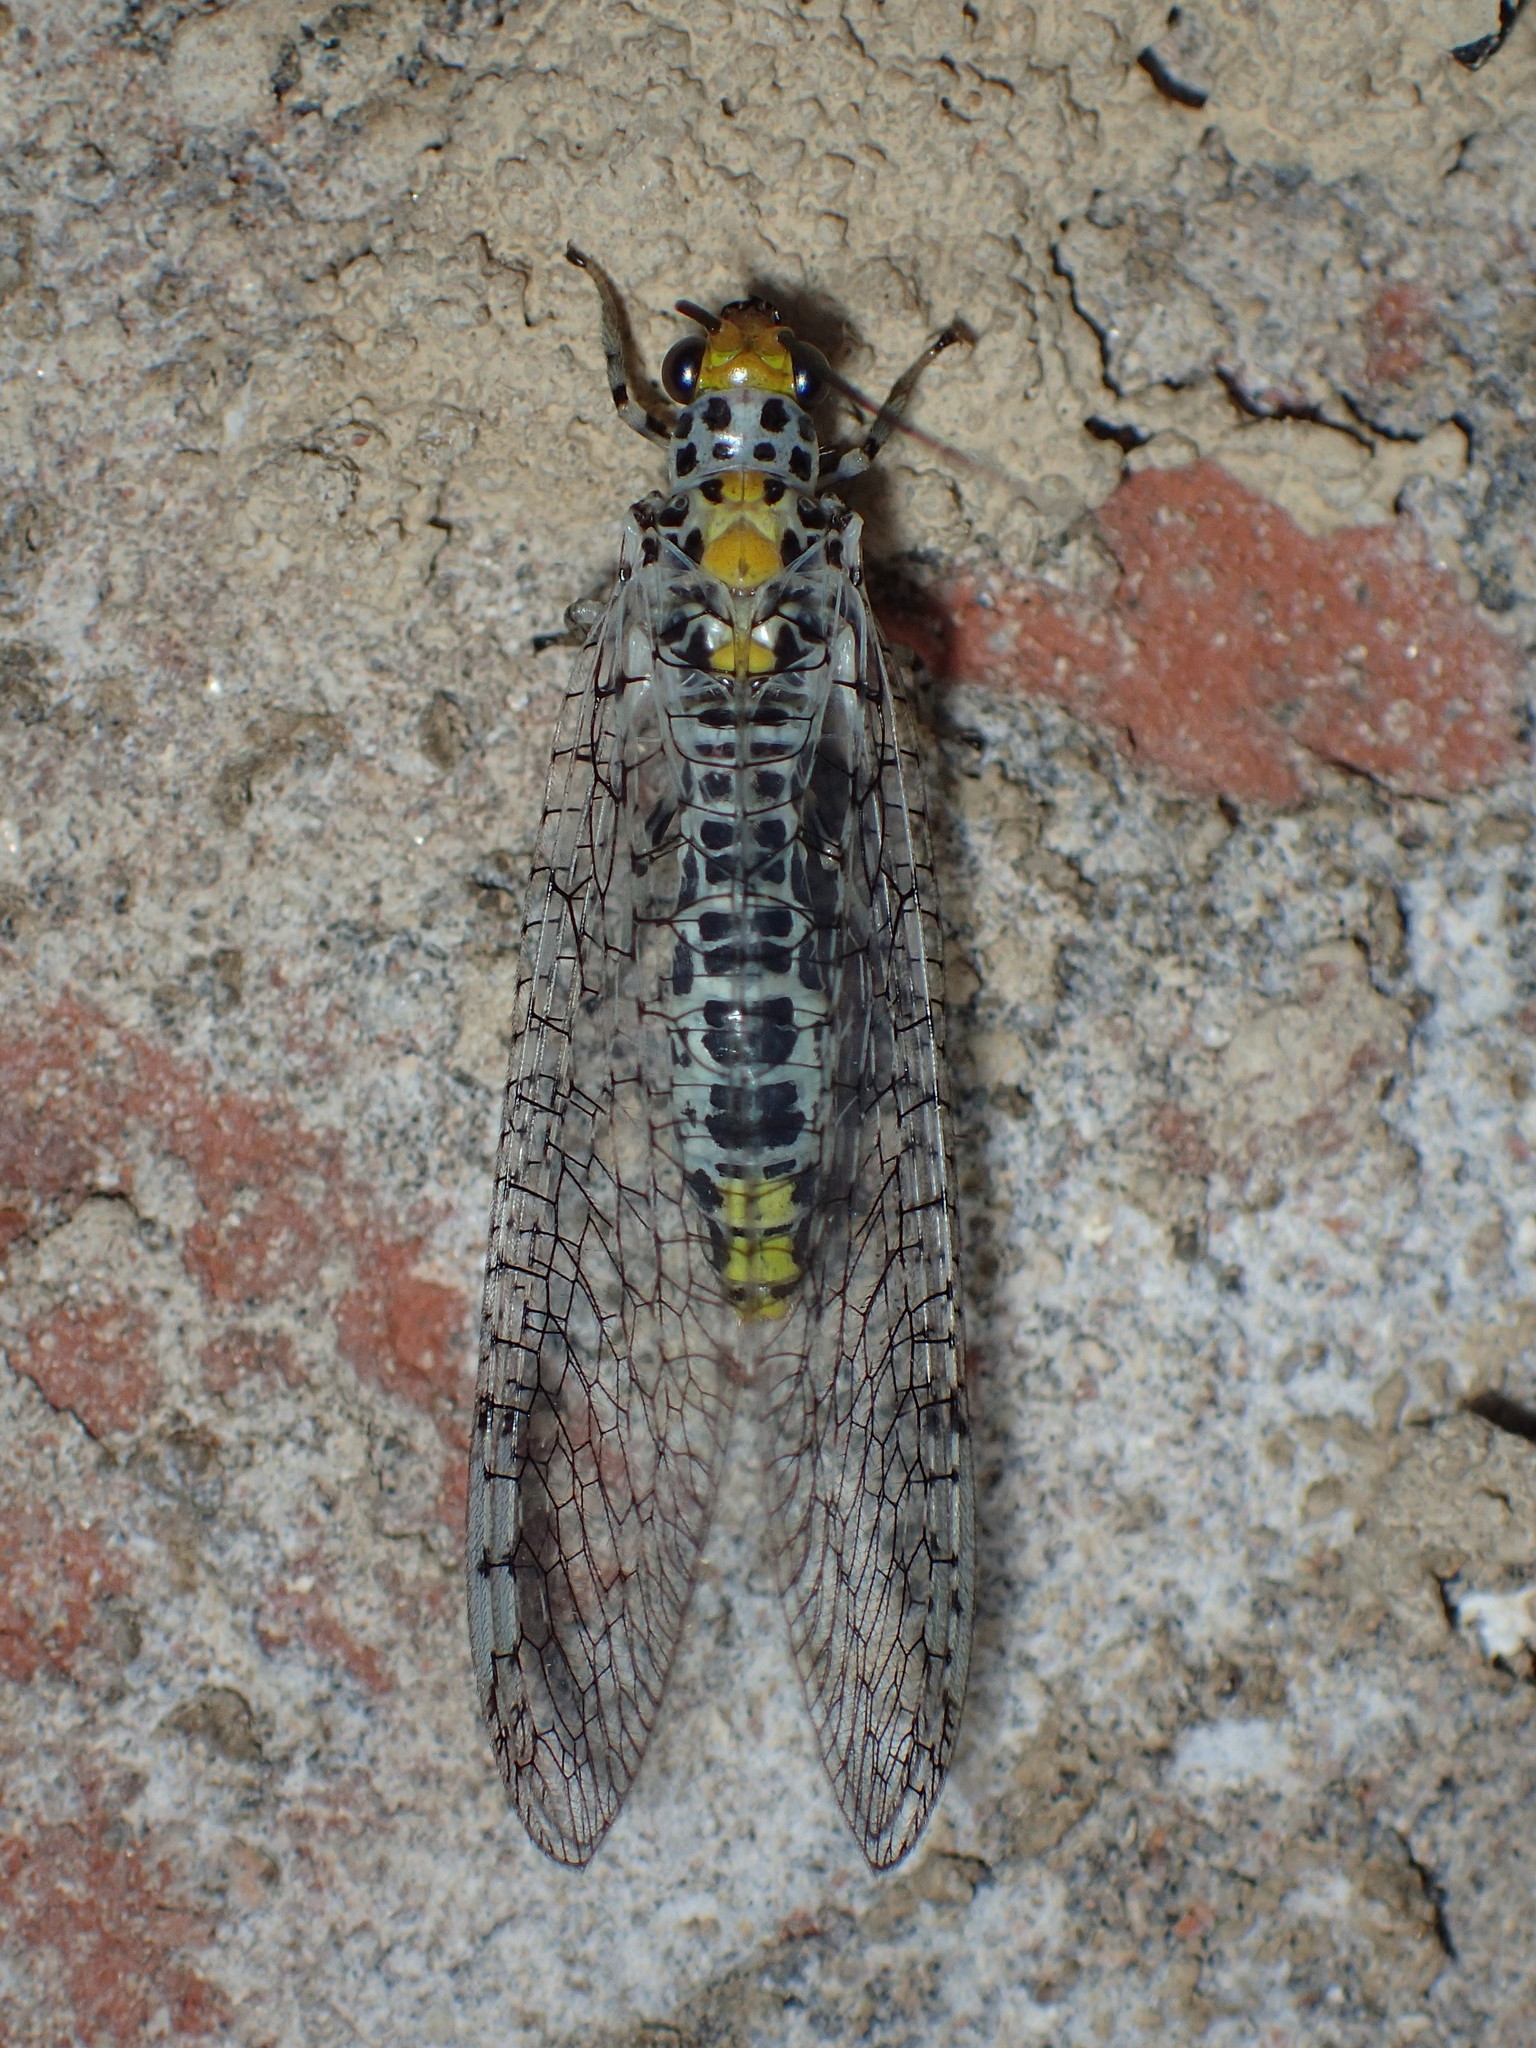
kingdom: Animalia
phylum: Arthropoda
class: Insecta
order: Neuroptera
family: Chrysopidae
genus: Abachrysa
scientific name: Abachrysa eureka
